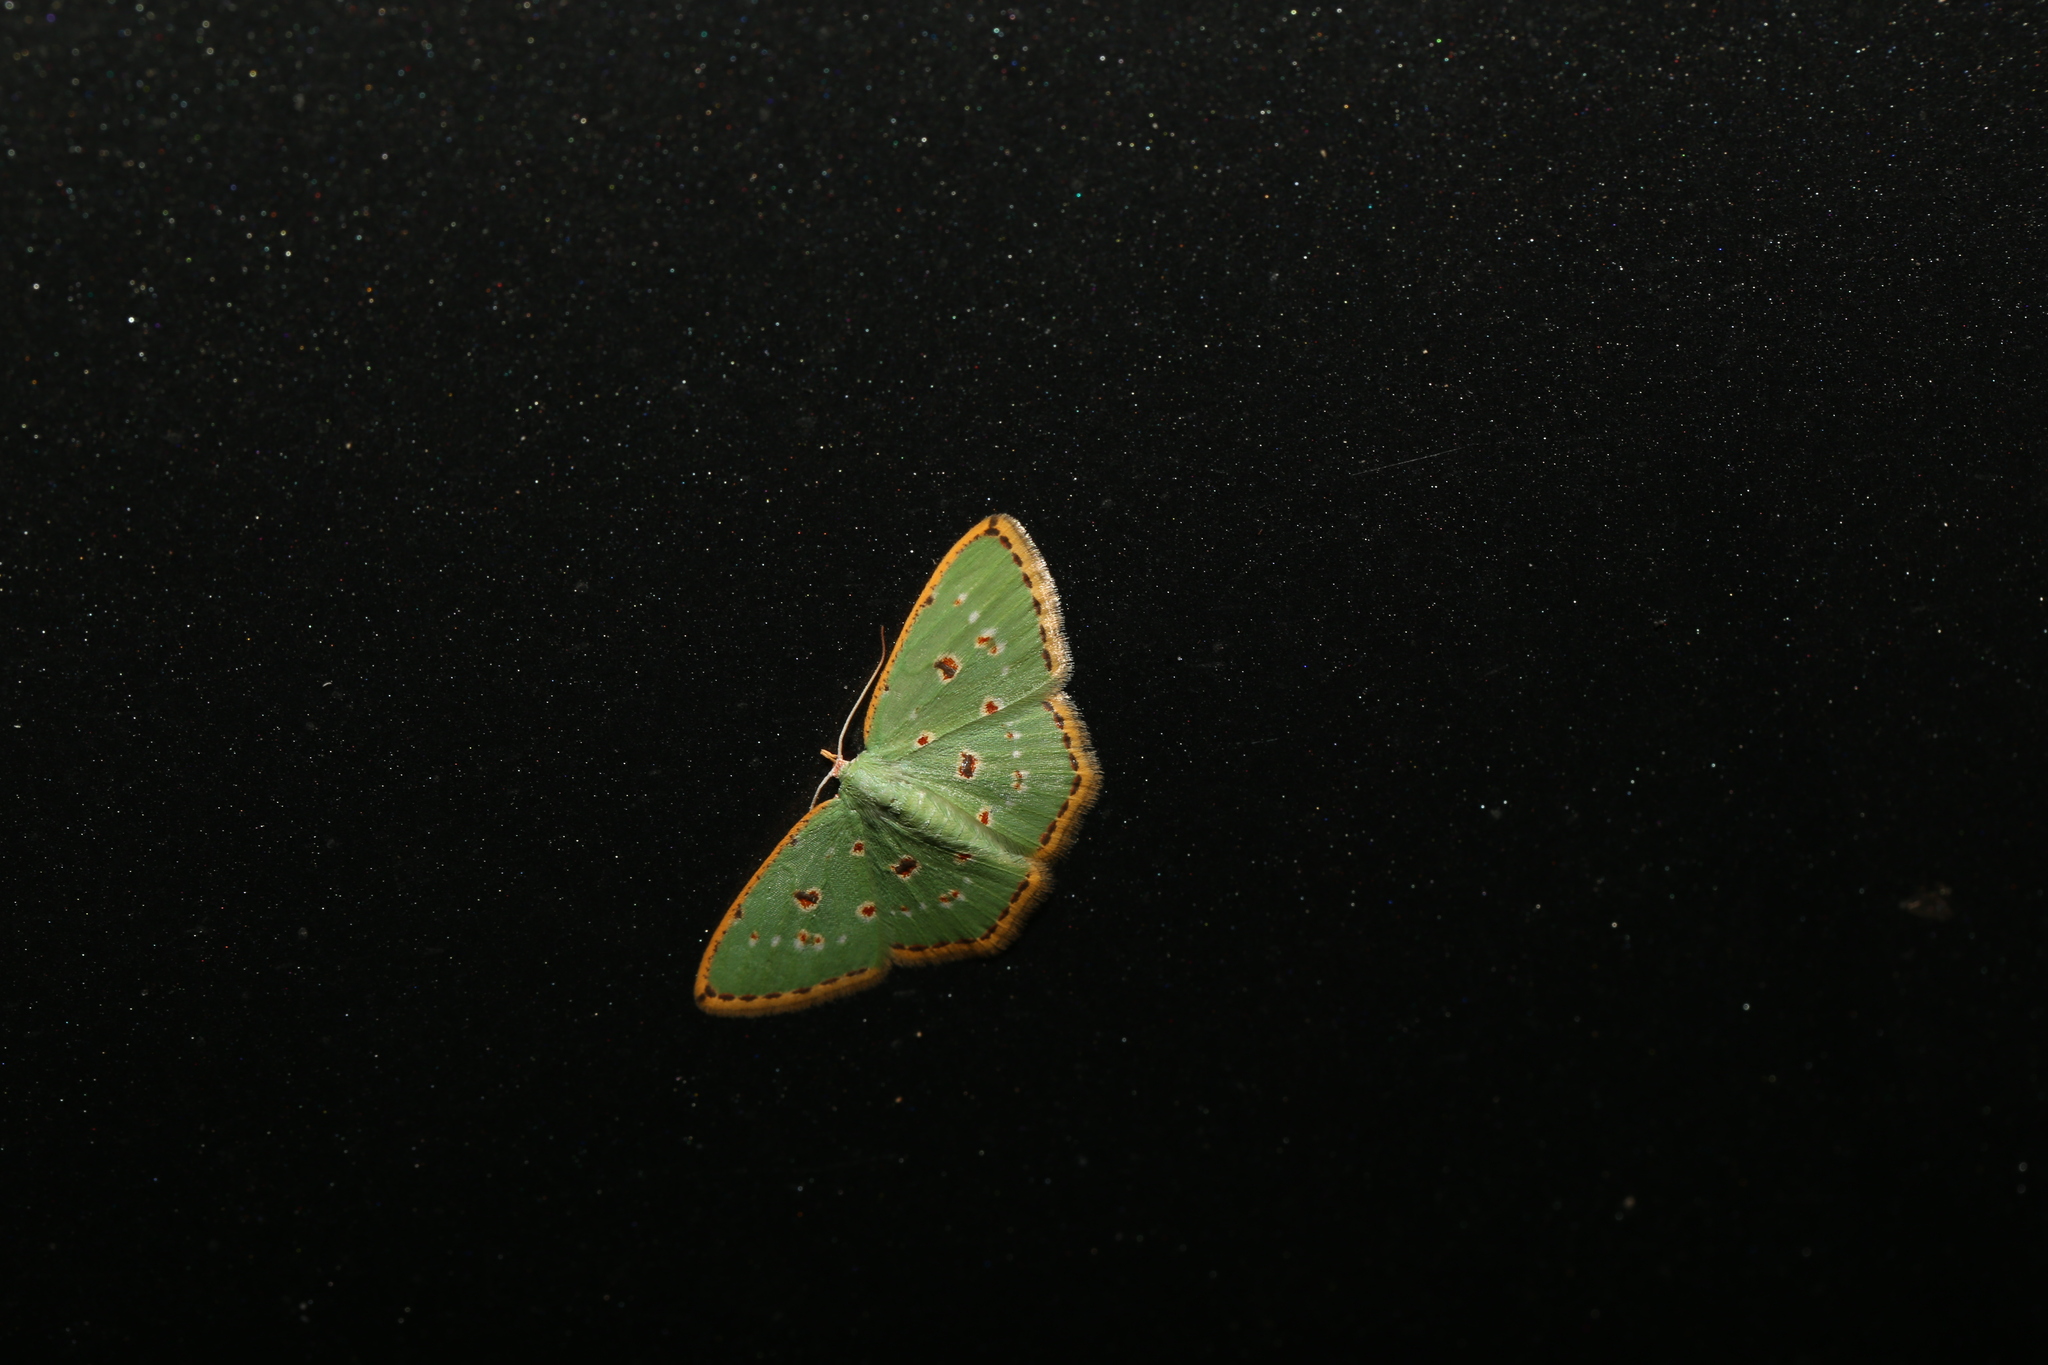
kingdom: Animalia
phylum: Arthropoda
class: Insecta
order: Lepidoptera
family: Geometridae
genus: Comostola
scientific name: Comostola laesaria
